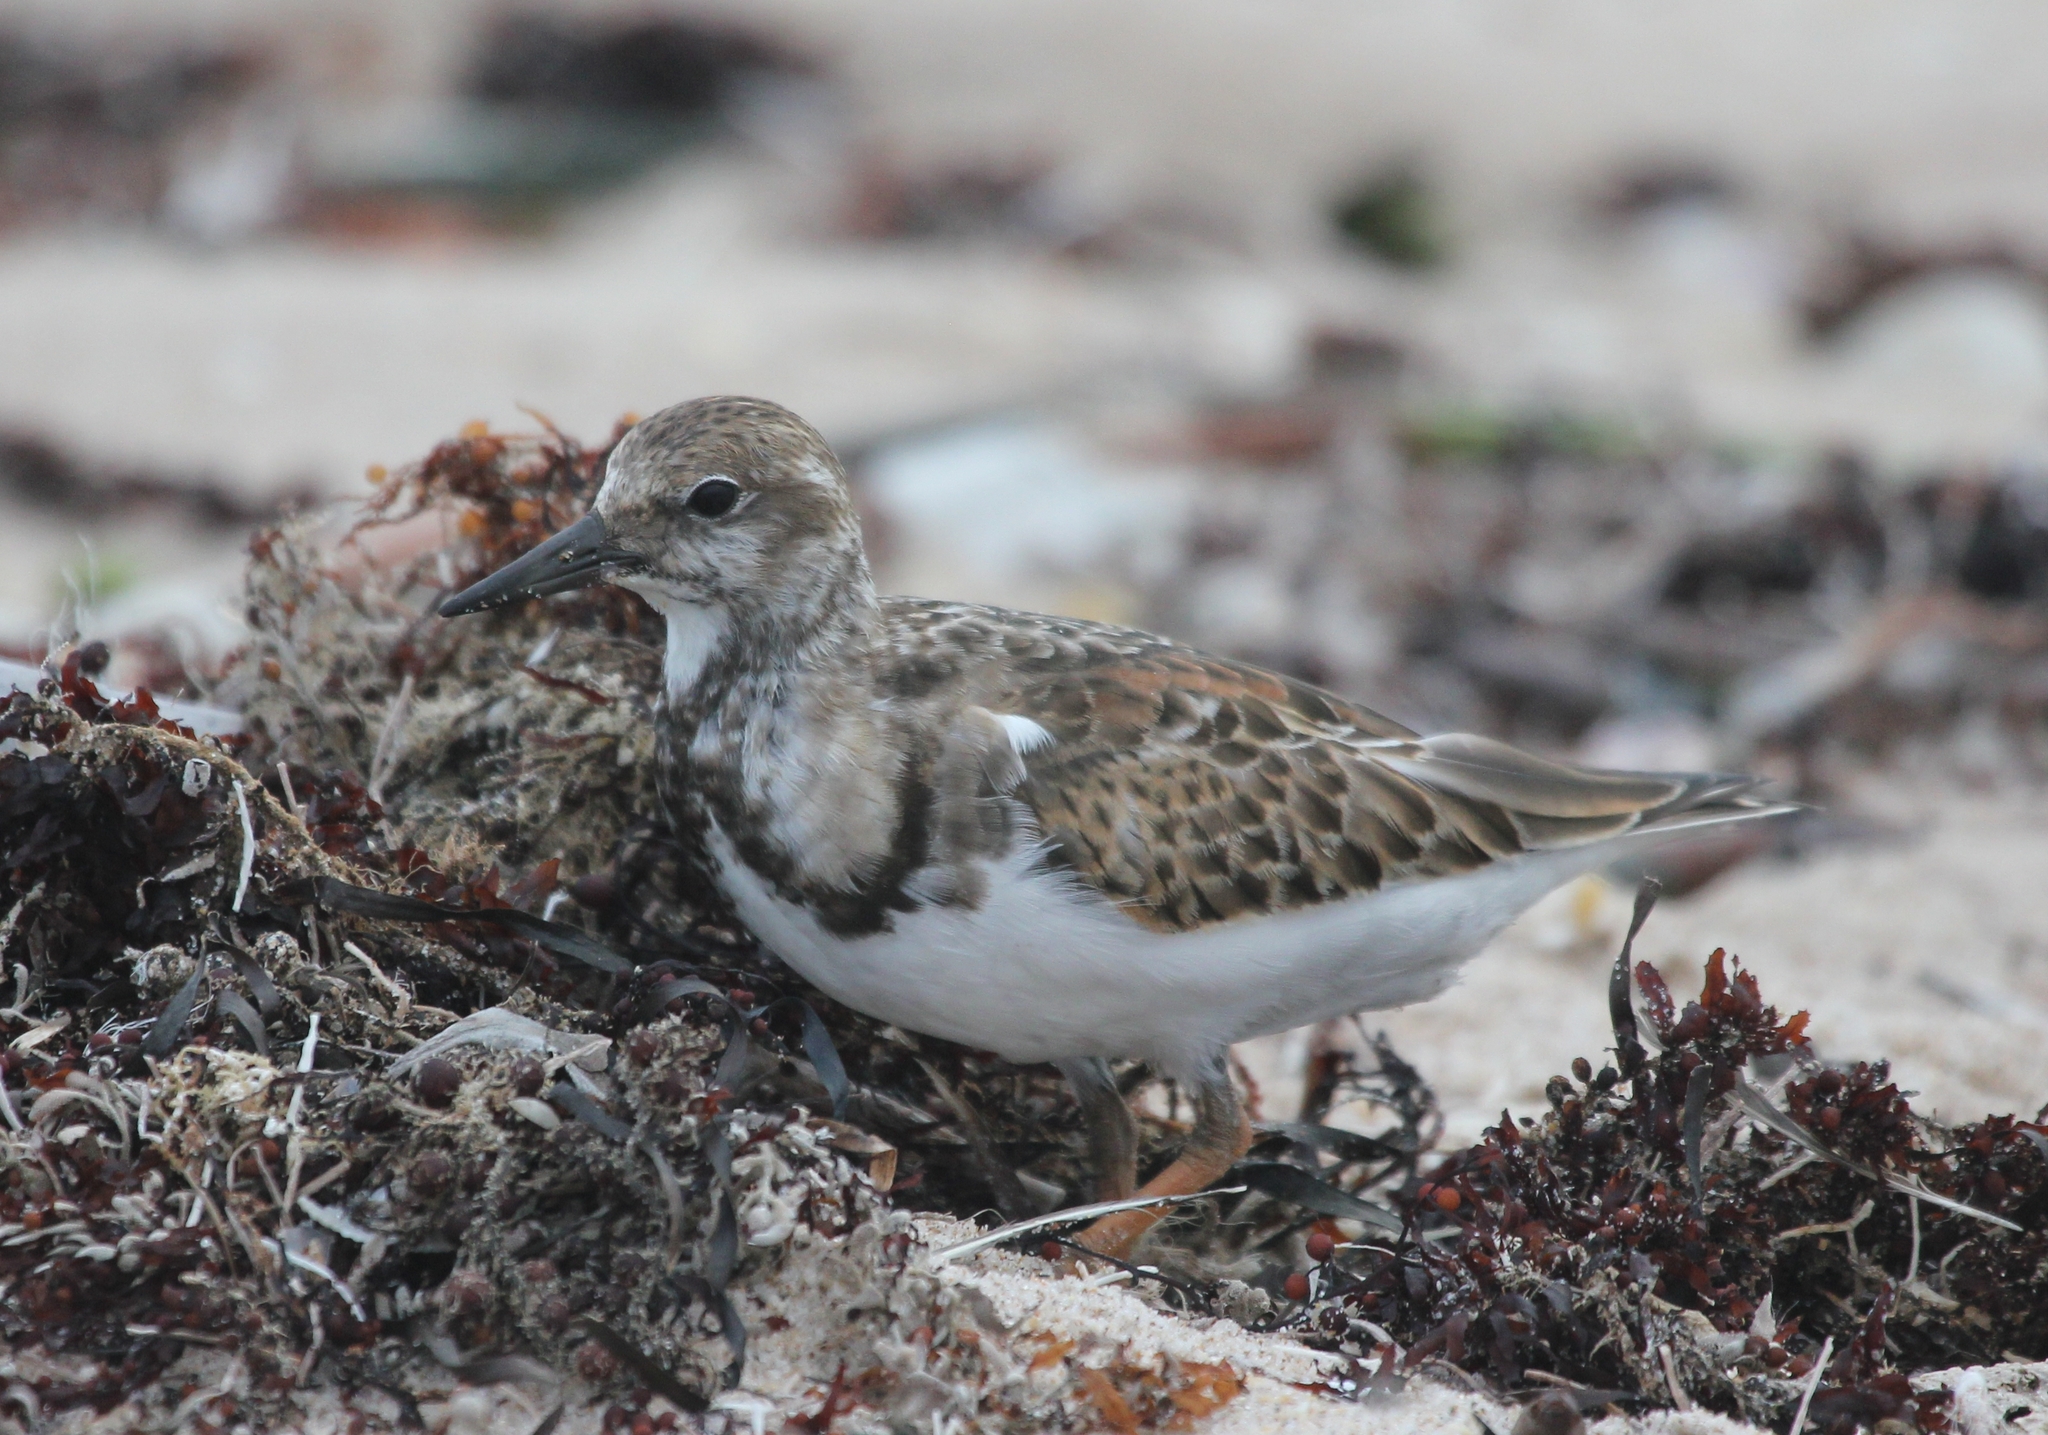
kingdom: Animalia
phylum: Chordata
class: Aves
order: Charadriiformes
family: Scolopacidae
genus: Arenaria
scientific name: Arenaria interpres
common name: Ruddy turnstone
